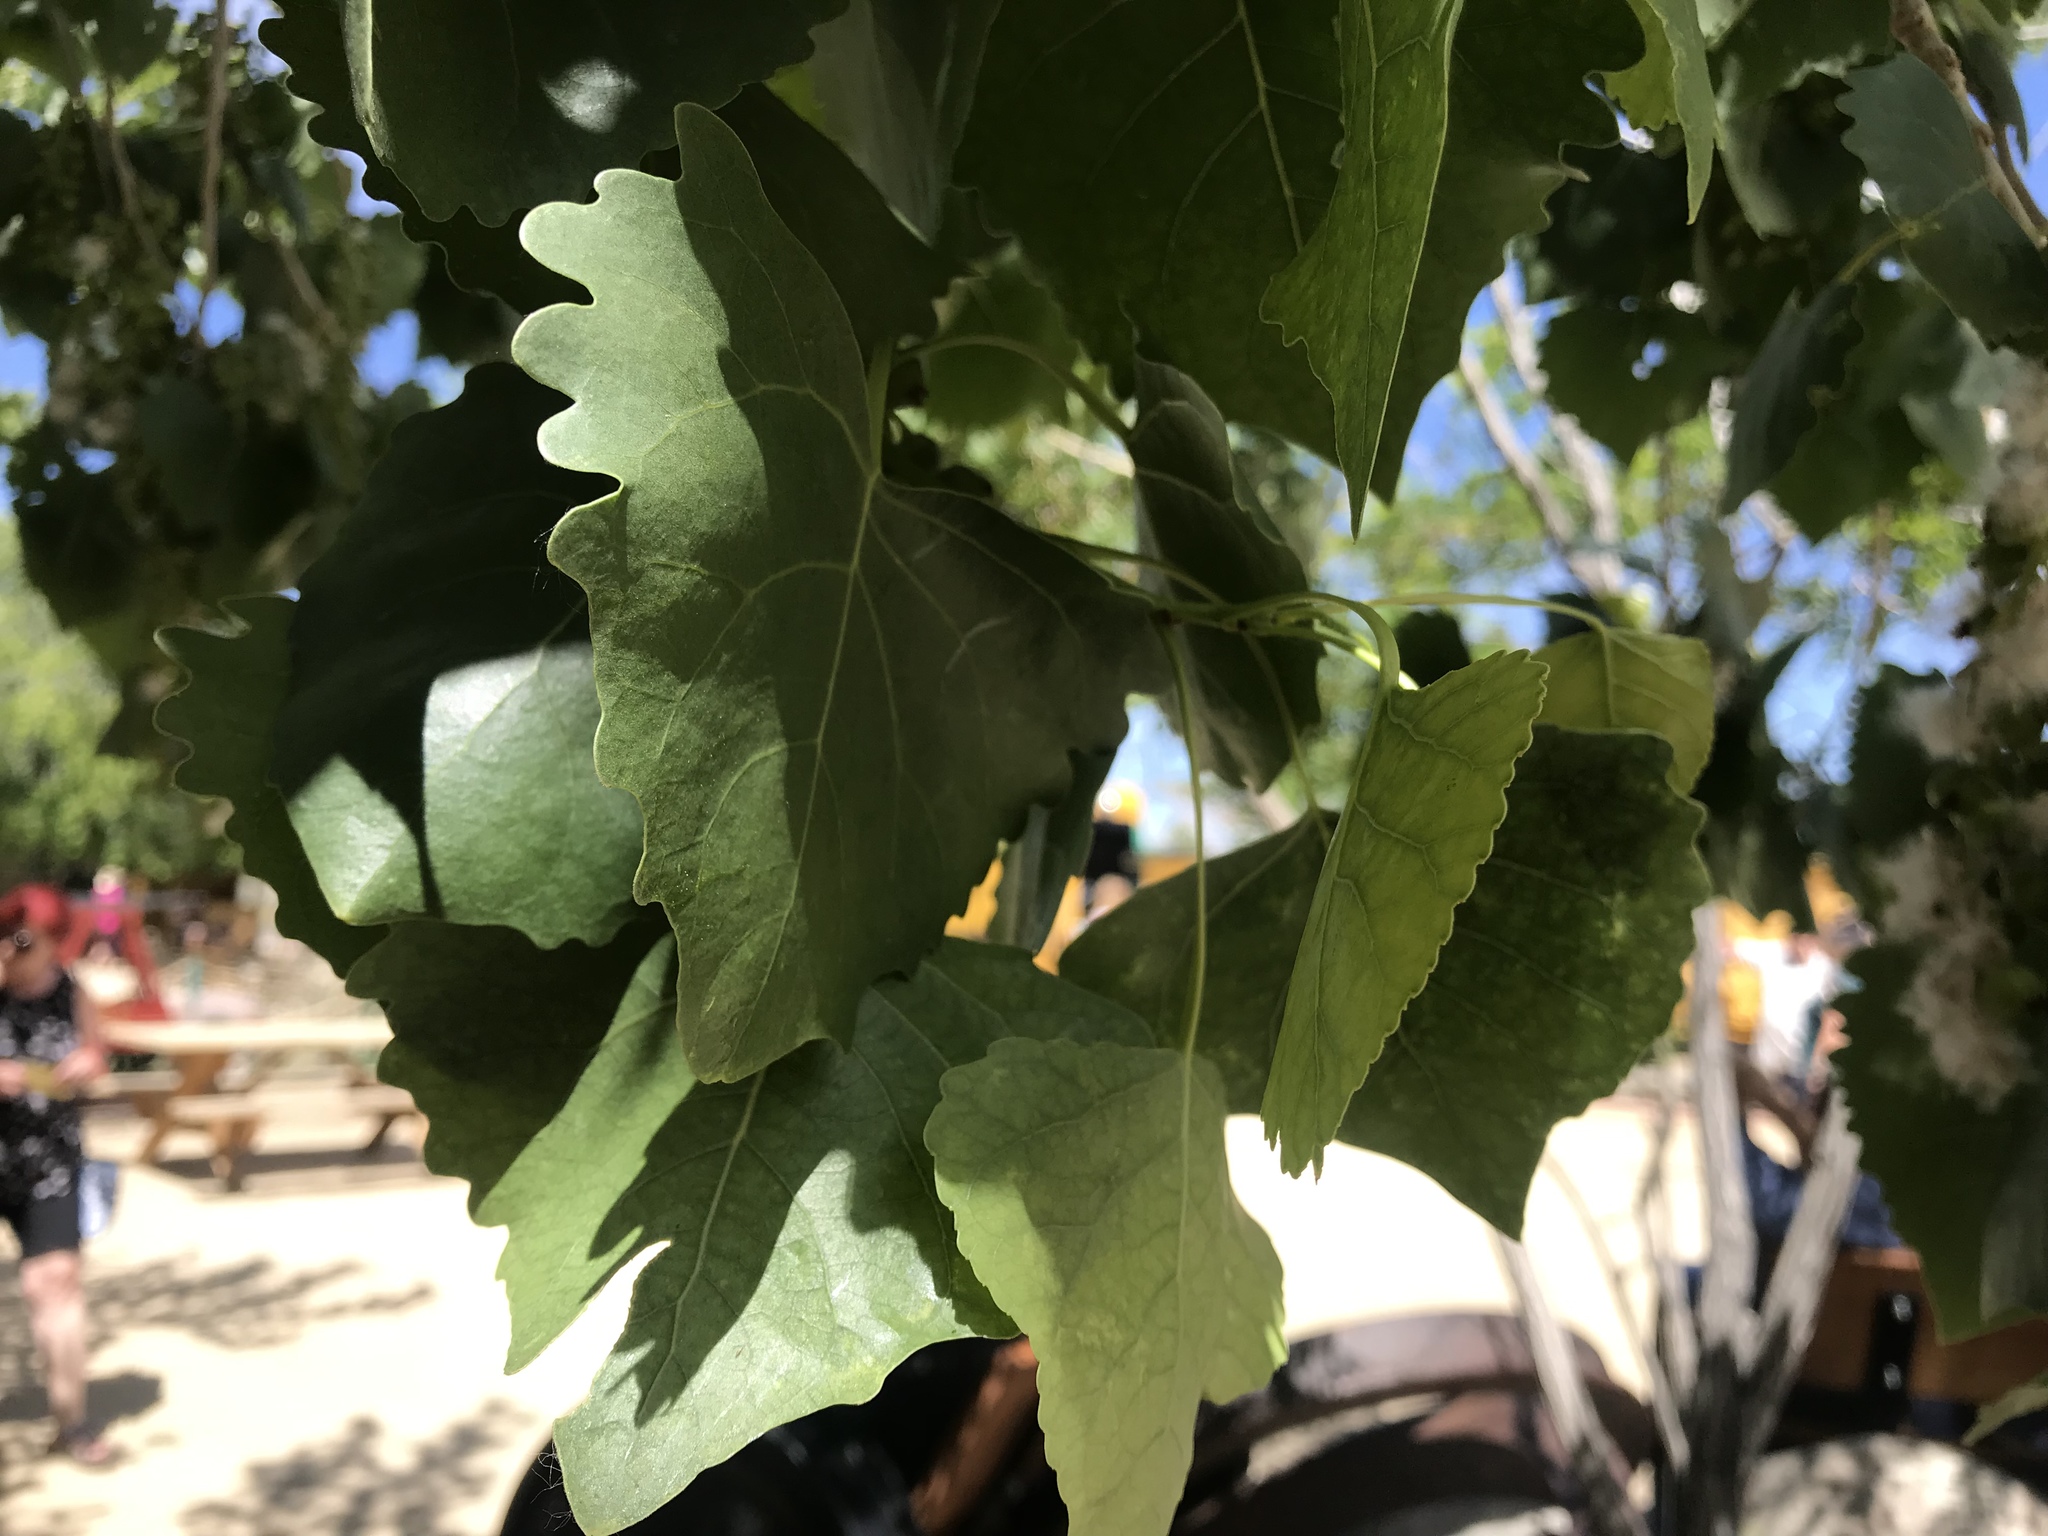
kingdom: Plantae
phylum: Tracheophyta
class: Magnoliopsida
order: Malpighiales
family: Salicaceae
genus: Populus
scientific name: Populus fremontii
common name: Fremont's cottonwood
